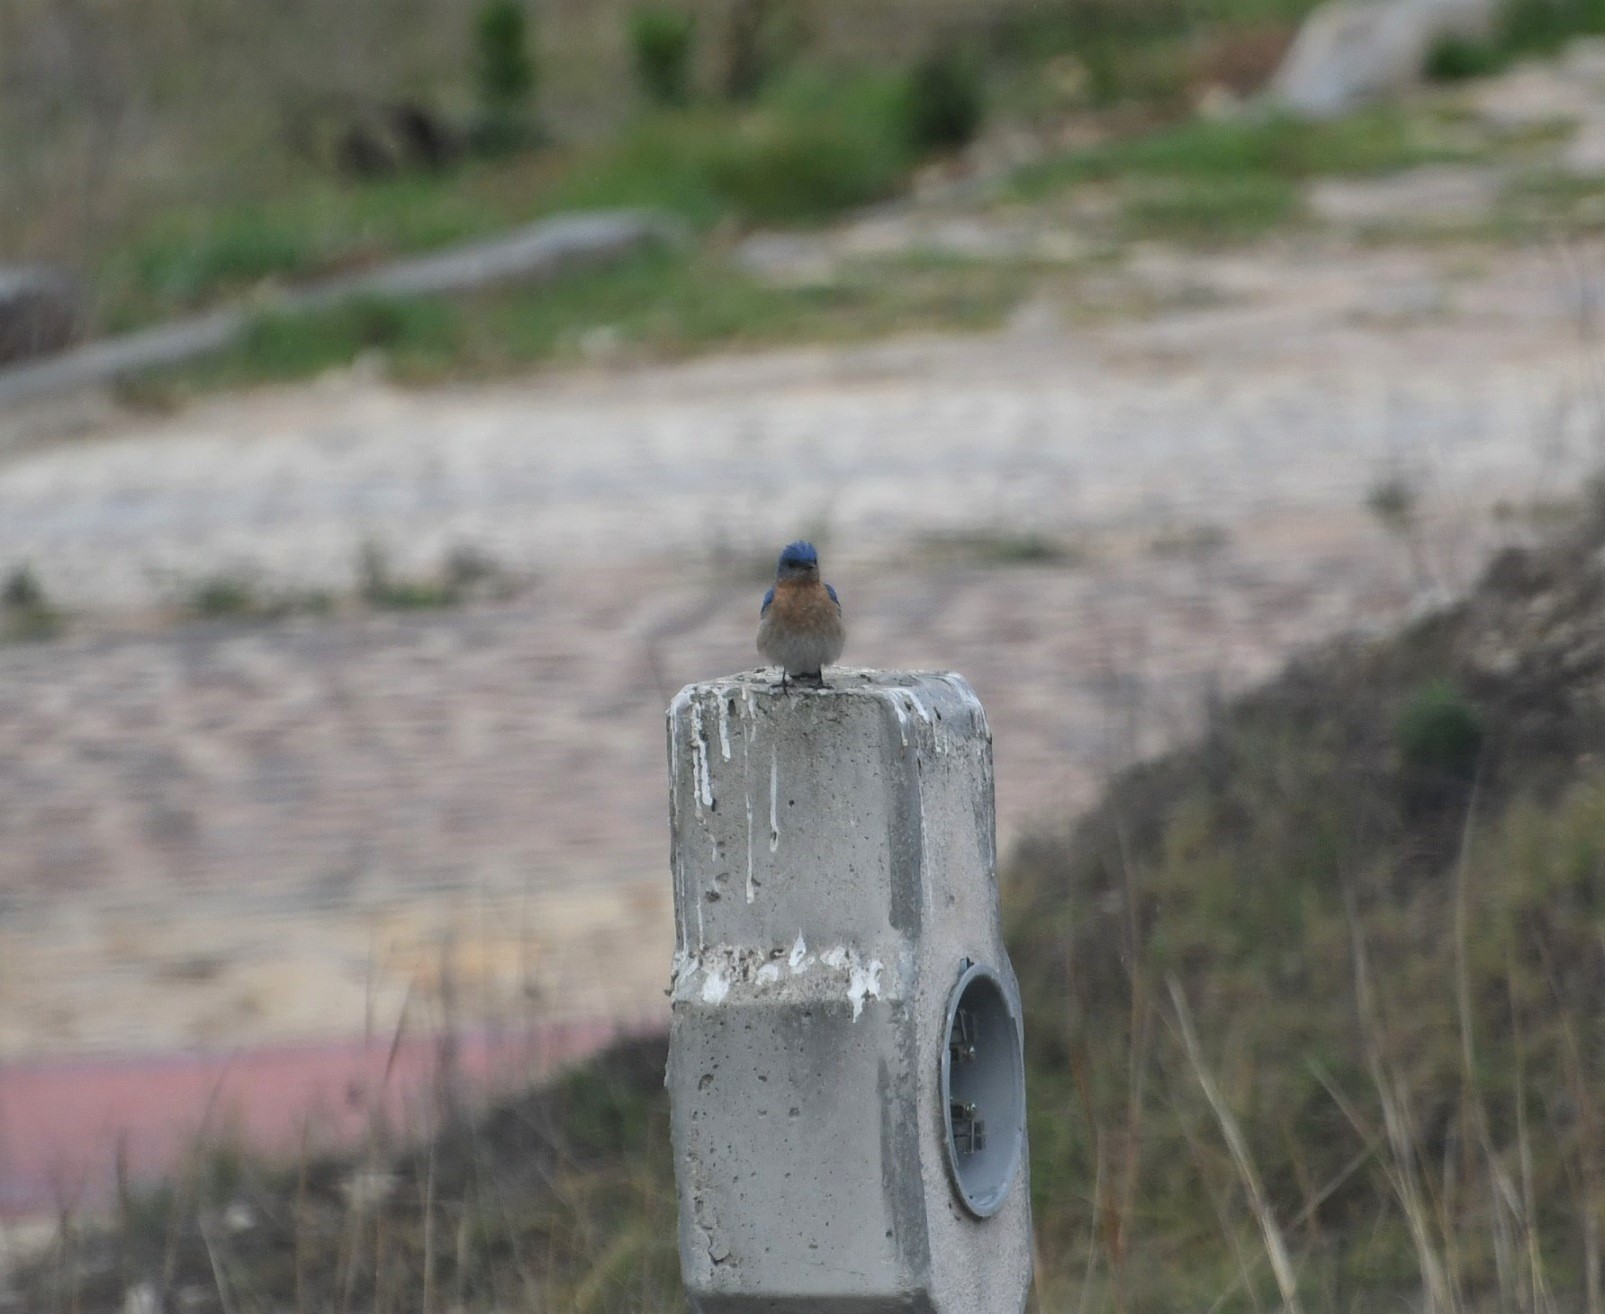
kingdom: Animalia
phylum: Chordata
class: Aves
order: Passeriformes
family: Turdidae
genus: Sialia
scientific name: Sialia sialis
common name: Eastern bluebird
